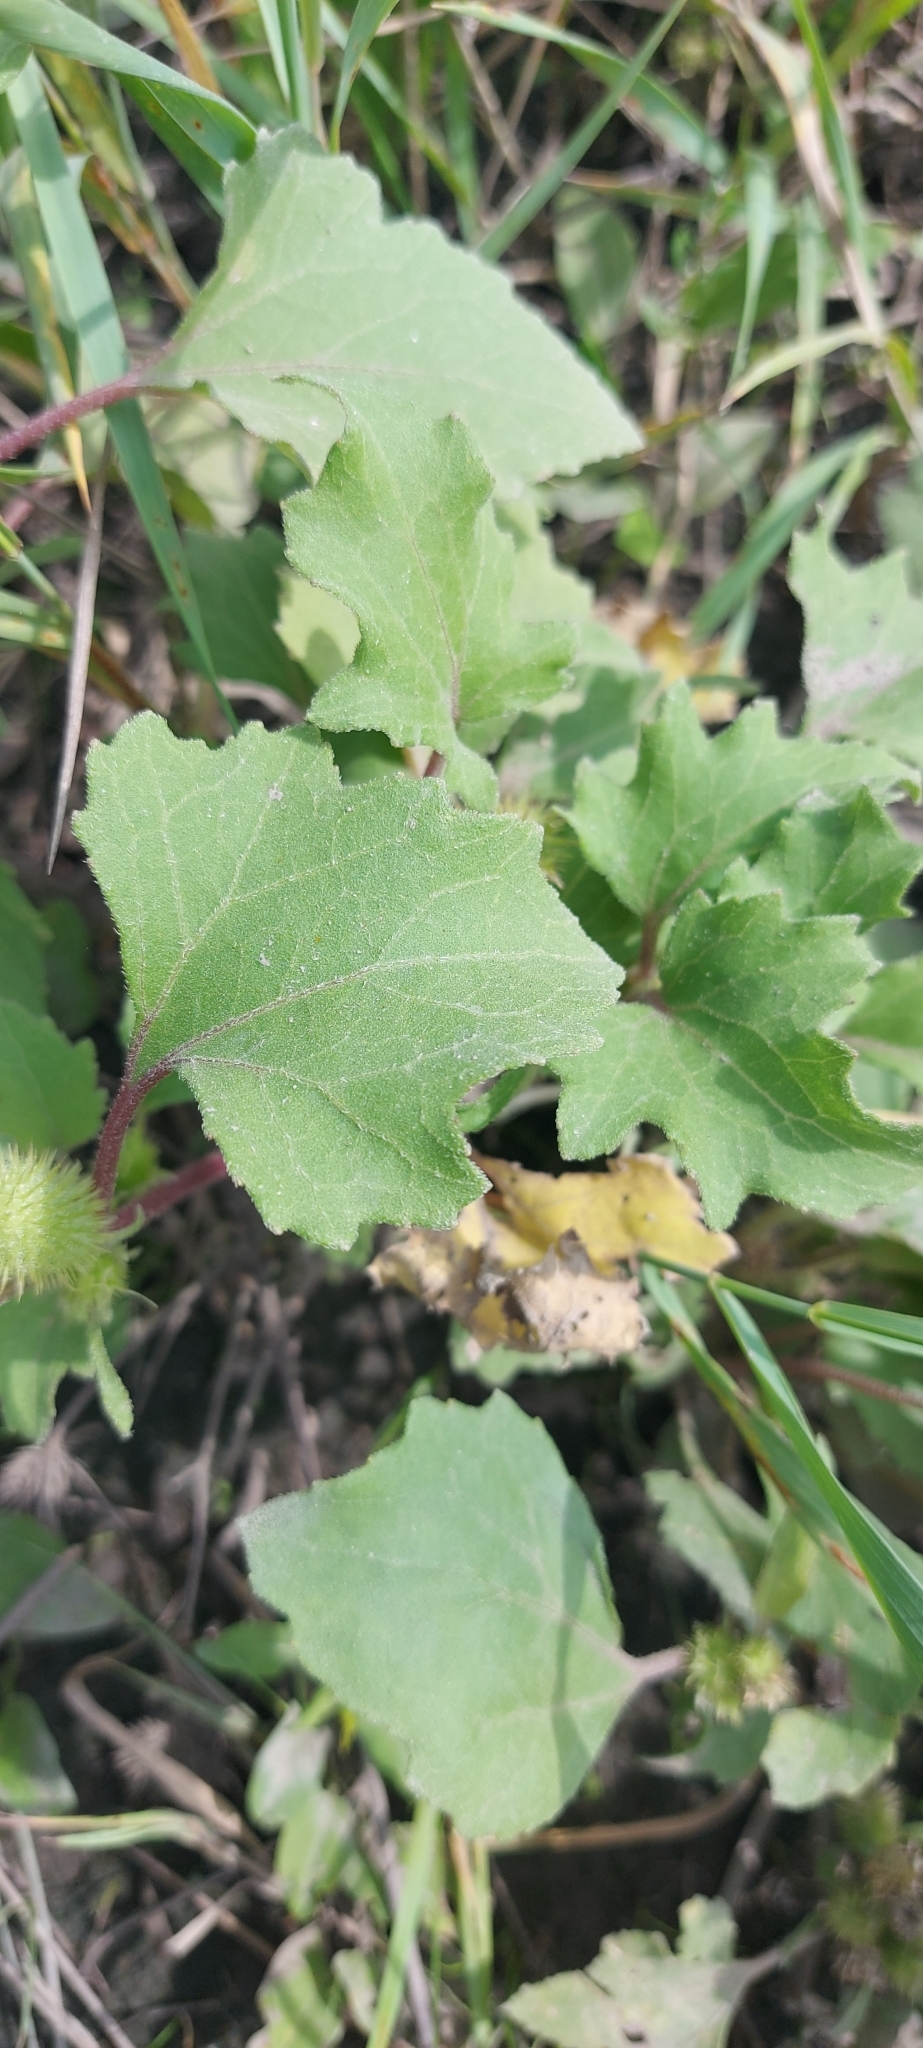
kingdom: Plantae
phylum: Tracheophyta
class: Magnoliopsida
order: Asterales
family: Asteraceae
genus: Xanthium
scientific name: Xanthium orientale
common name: Californian burr
